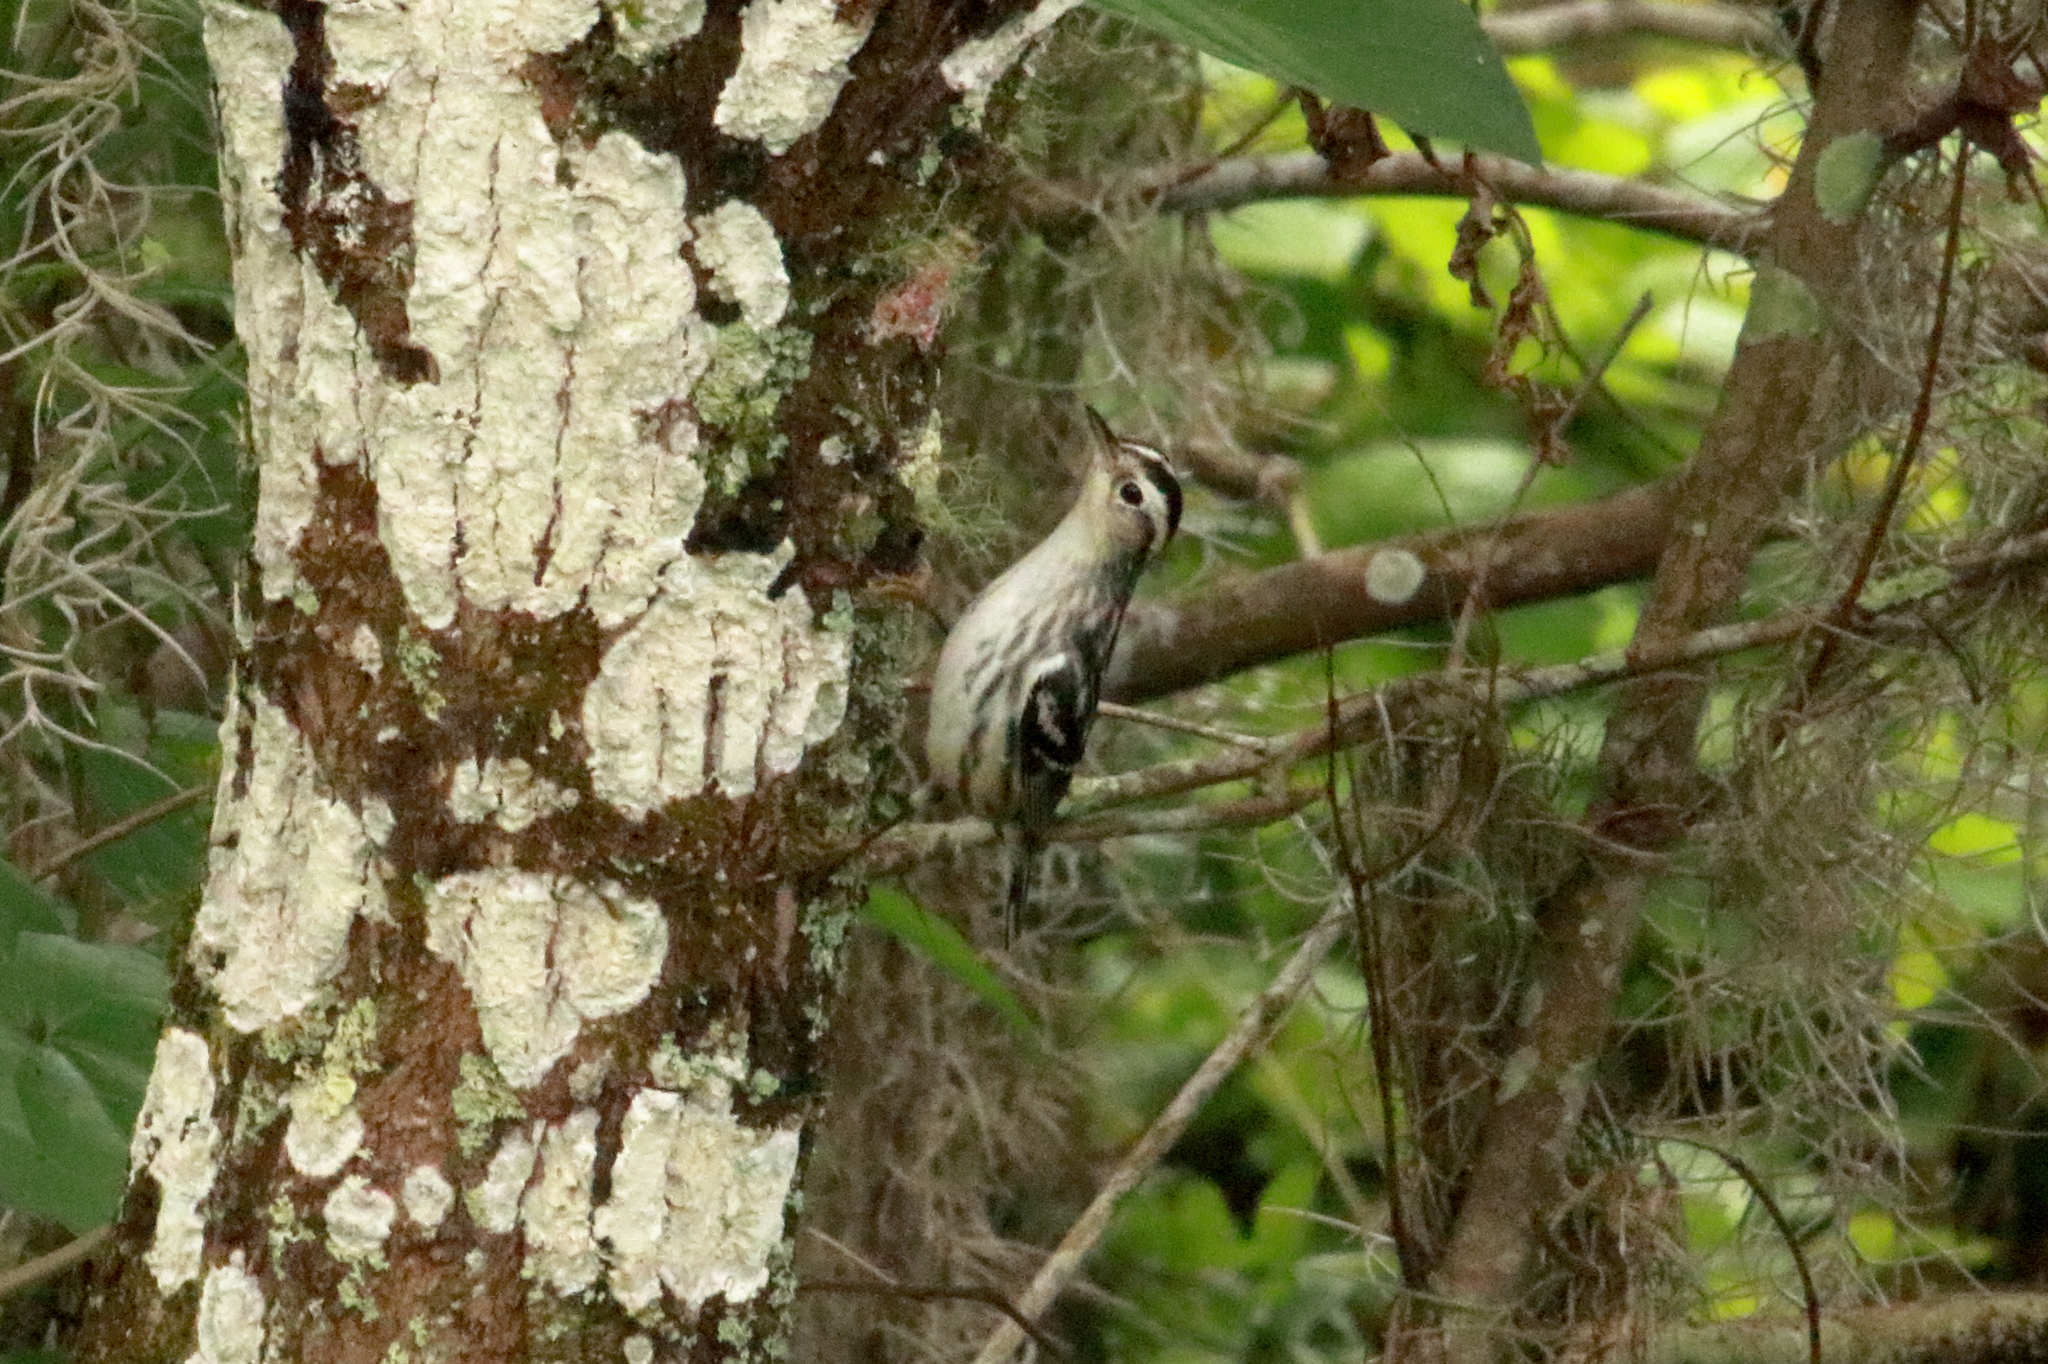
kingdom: Animalia
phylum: Chordata
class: Aves
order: Passeriformes
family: Parulidae
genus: Mniotilta
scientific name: Mniotilta varia
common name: Black-and-white warbler
